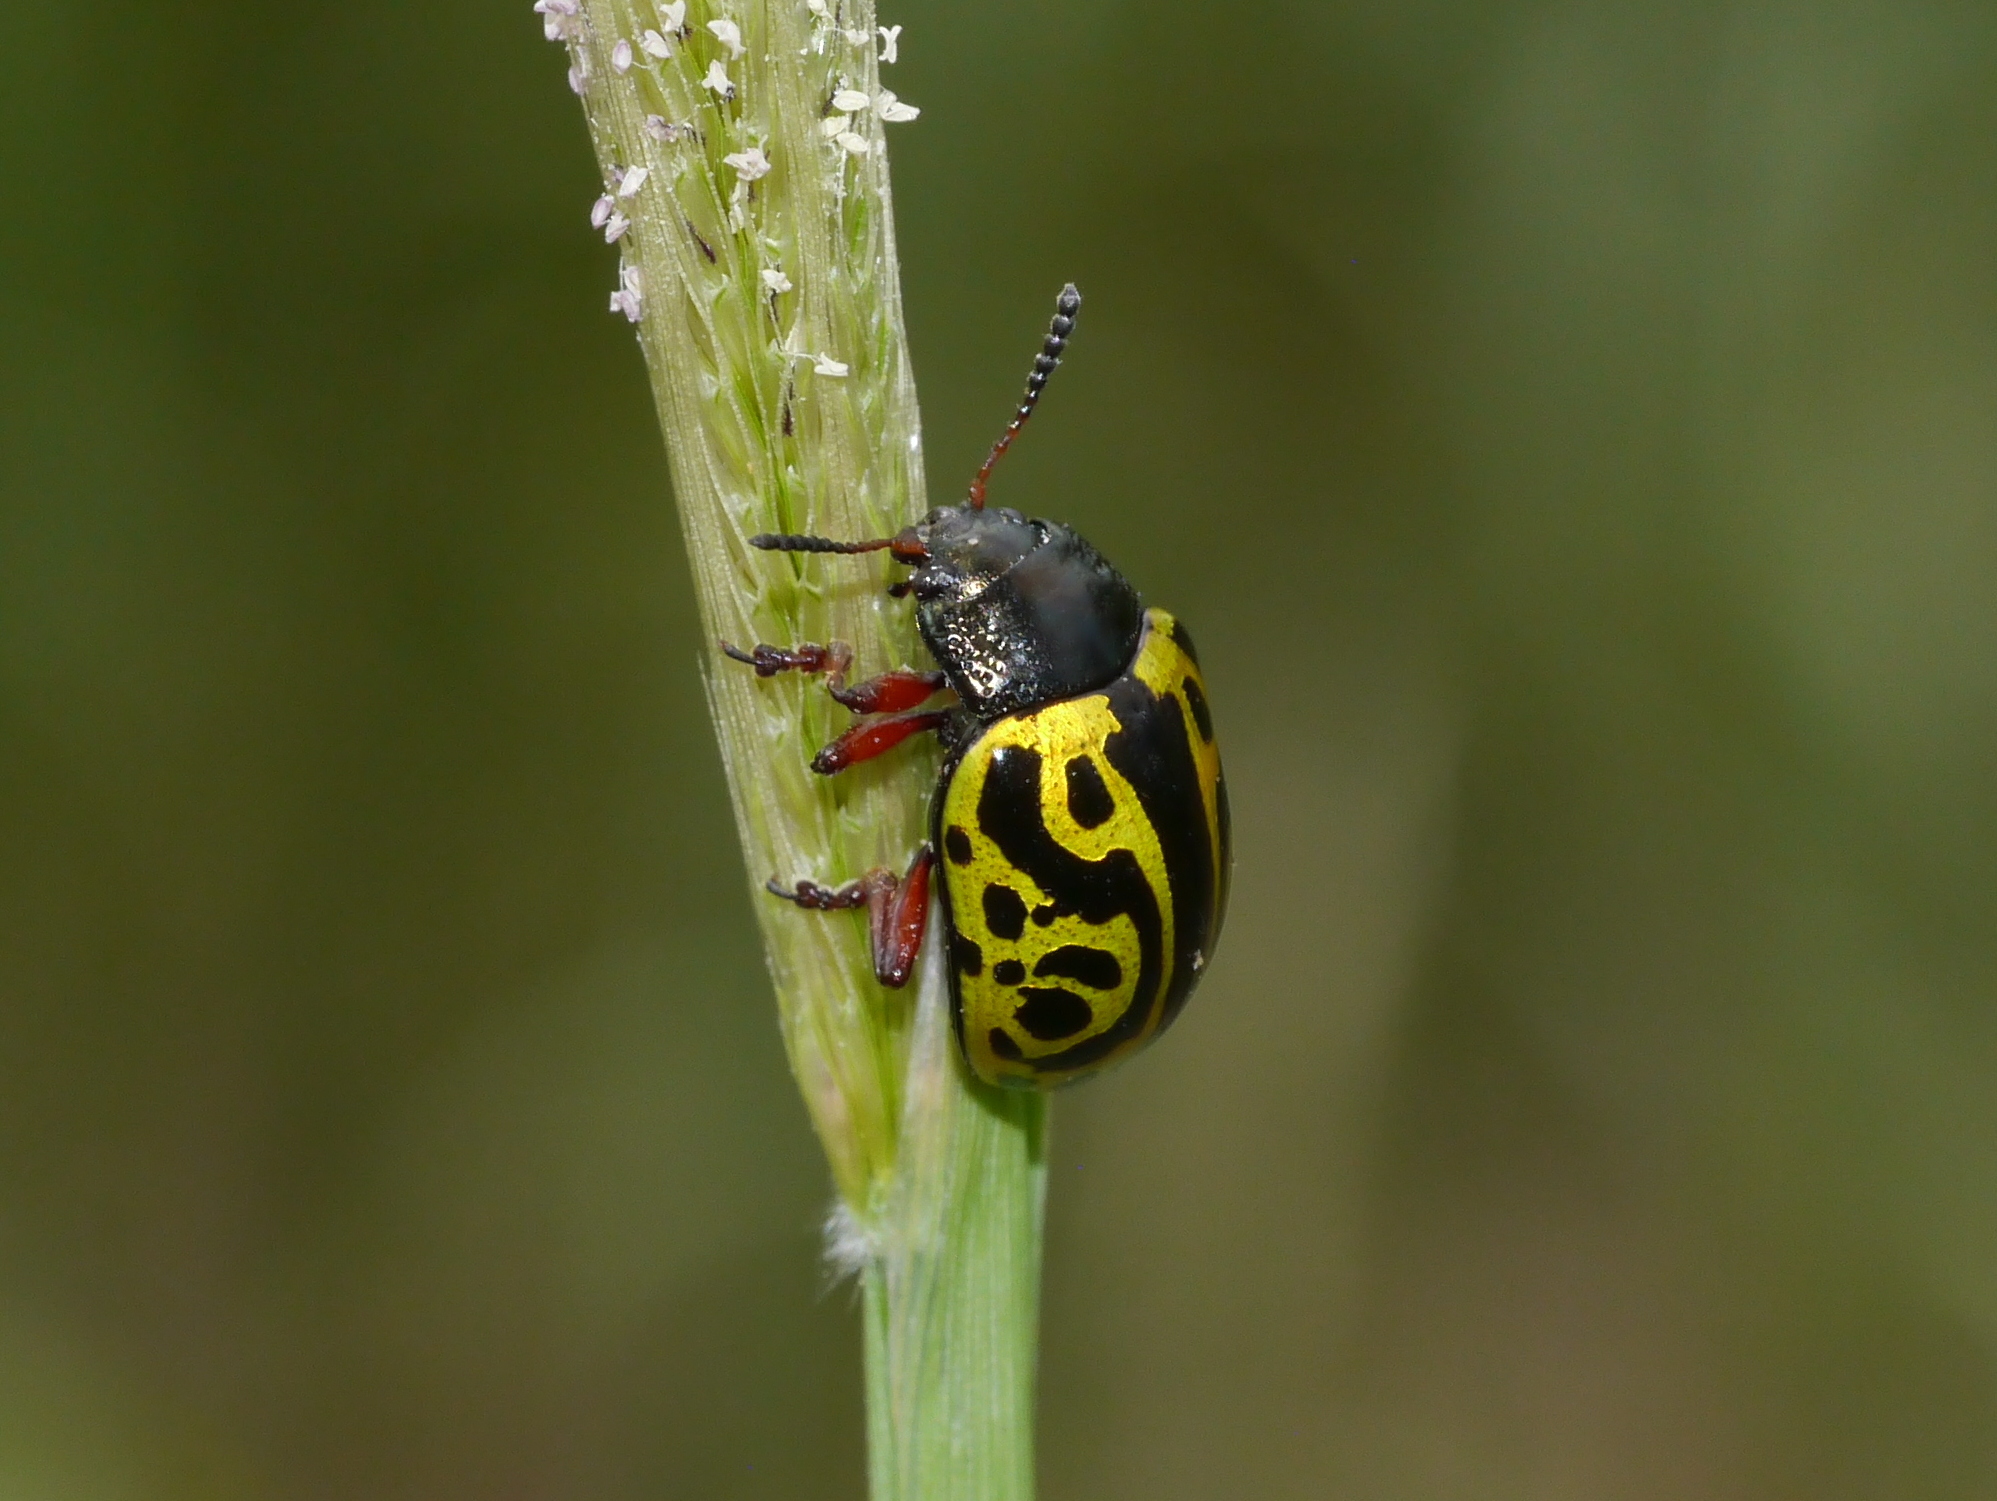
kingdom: Animalia
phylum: Arthropoda
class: Insecta
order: Coleoptera
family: Chrysomelidae
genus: Calligrapha
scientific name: Calligrapha serpentina
